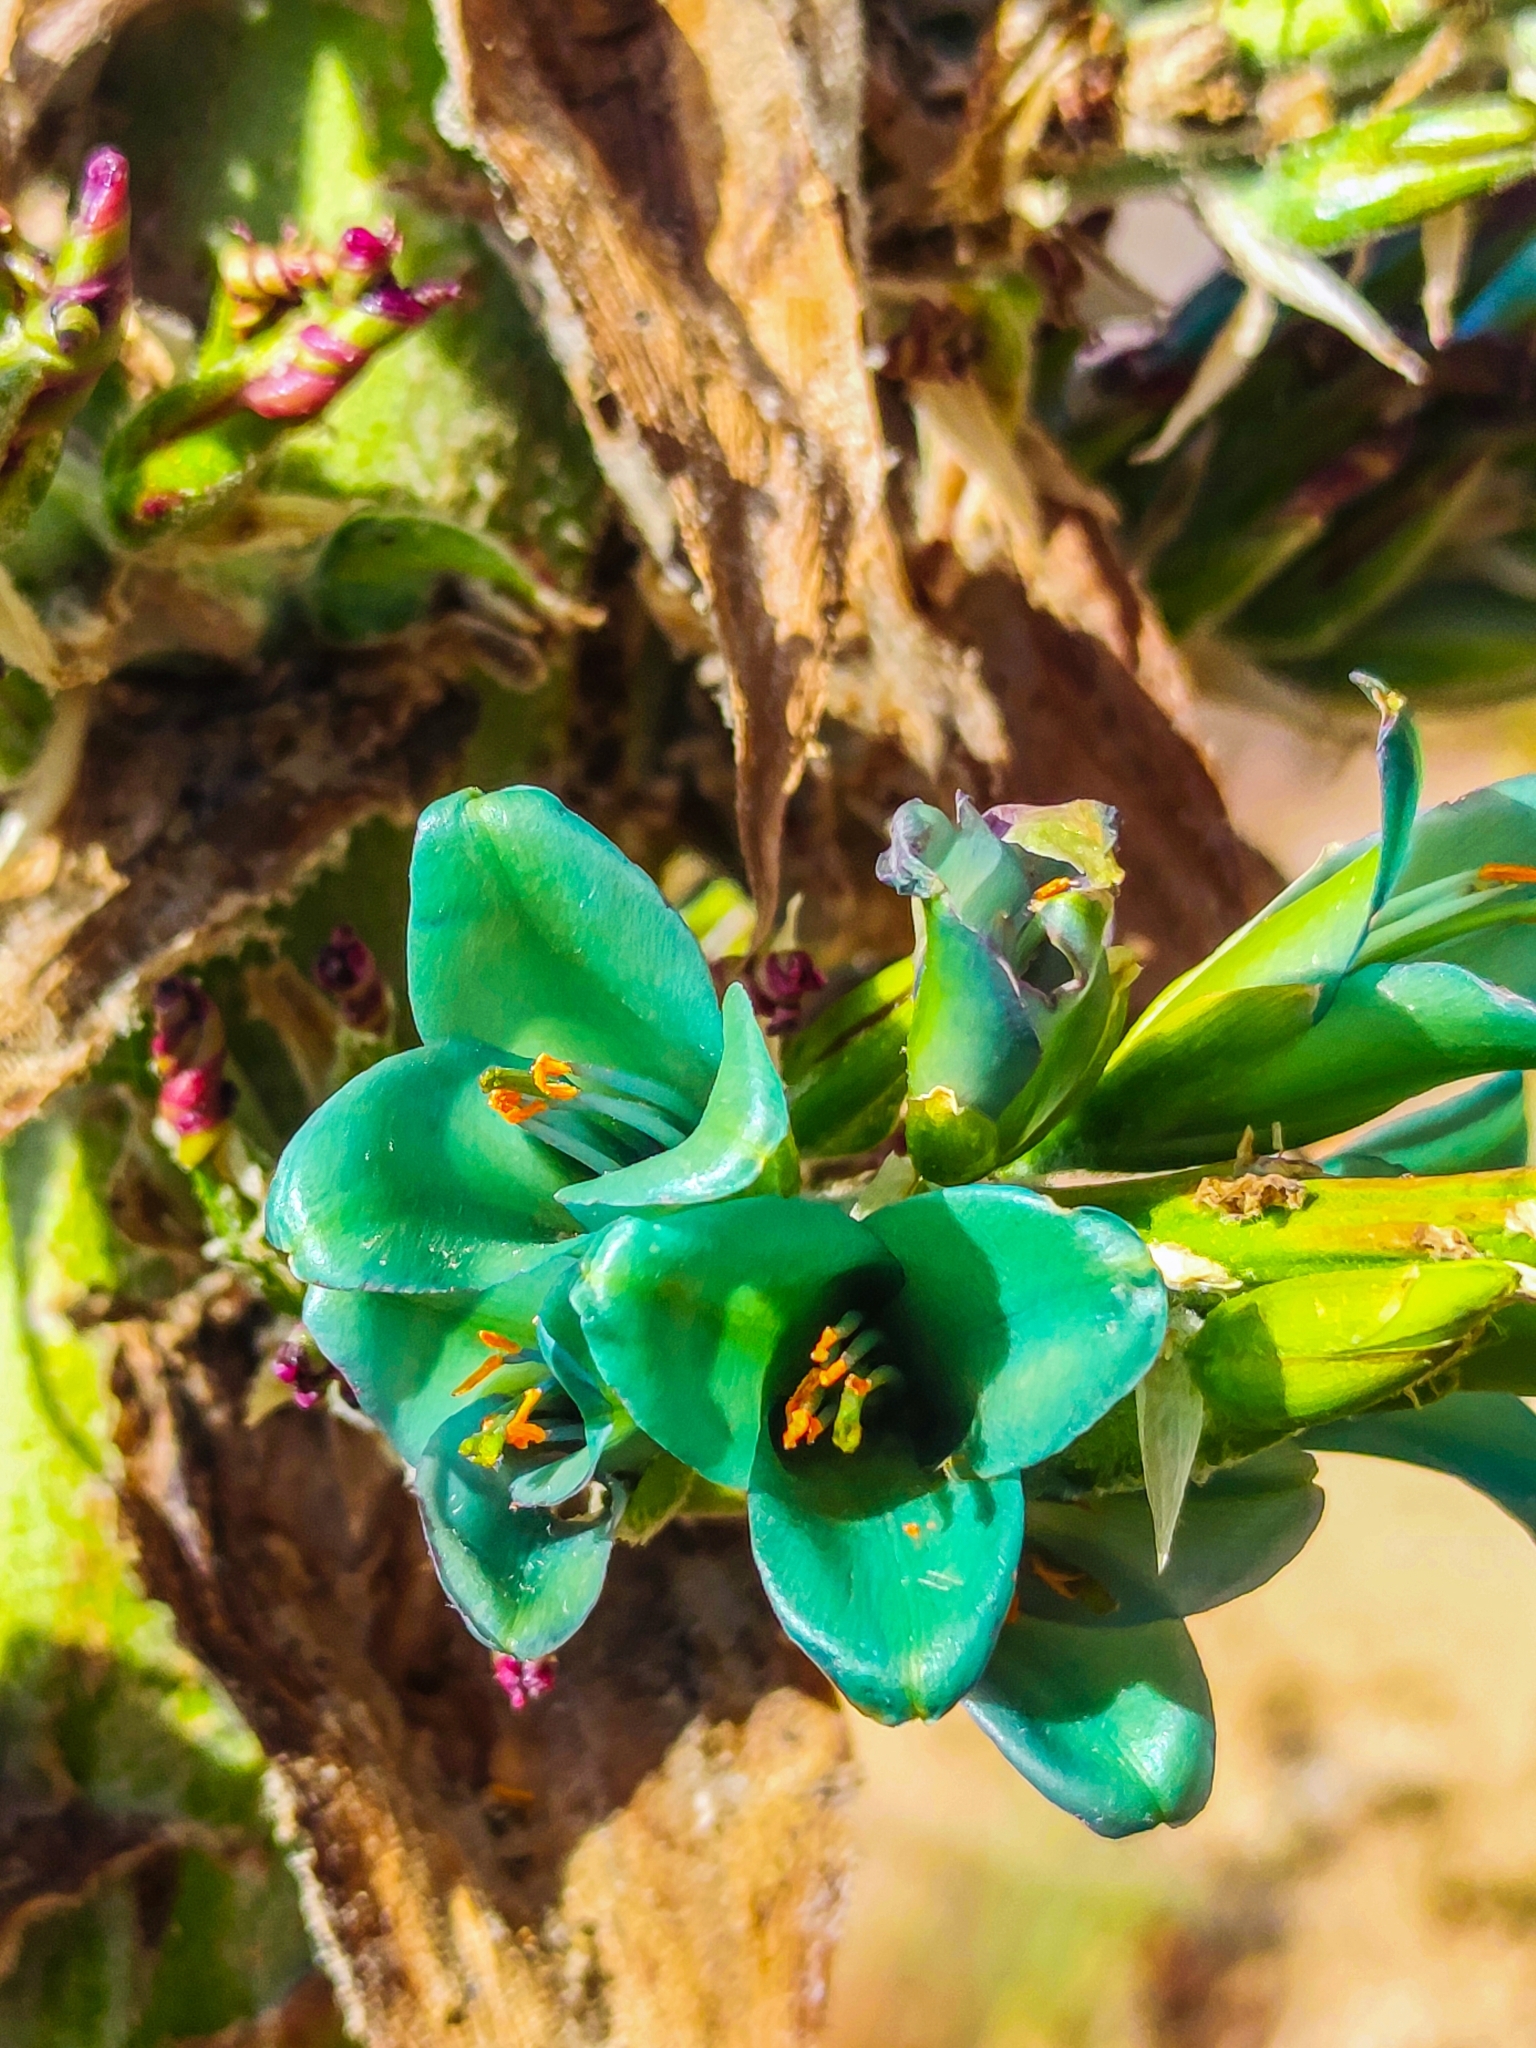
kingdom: Plantae
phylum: Tracheophyta
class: Liliopsida
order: Poales
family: Bromeliaceae
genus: Puya
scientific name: Puya alpestris
